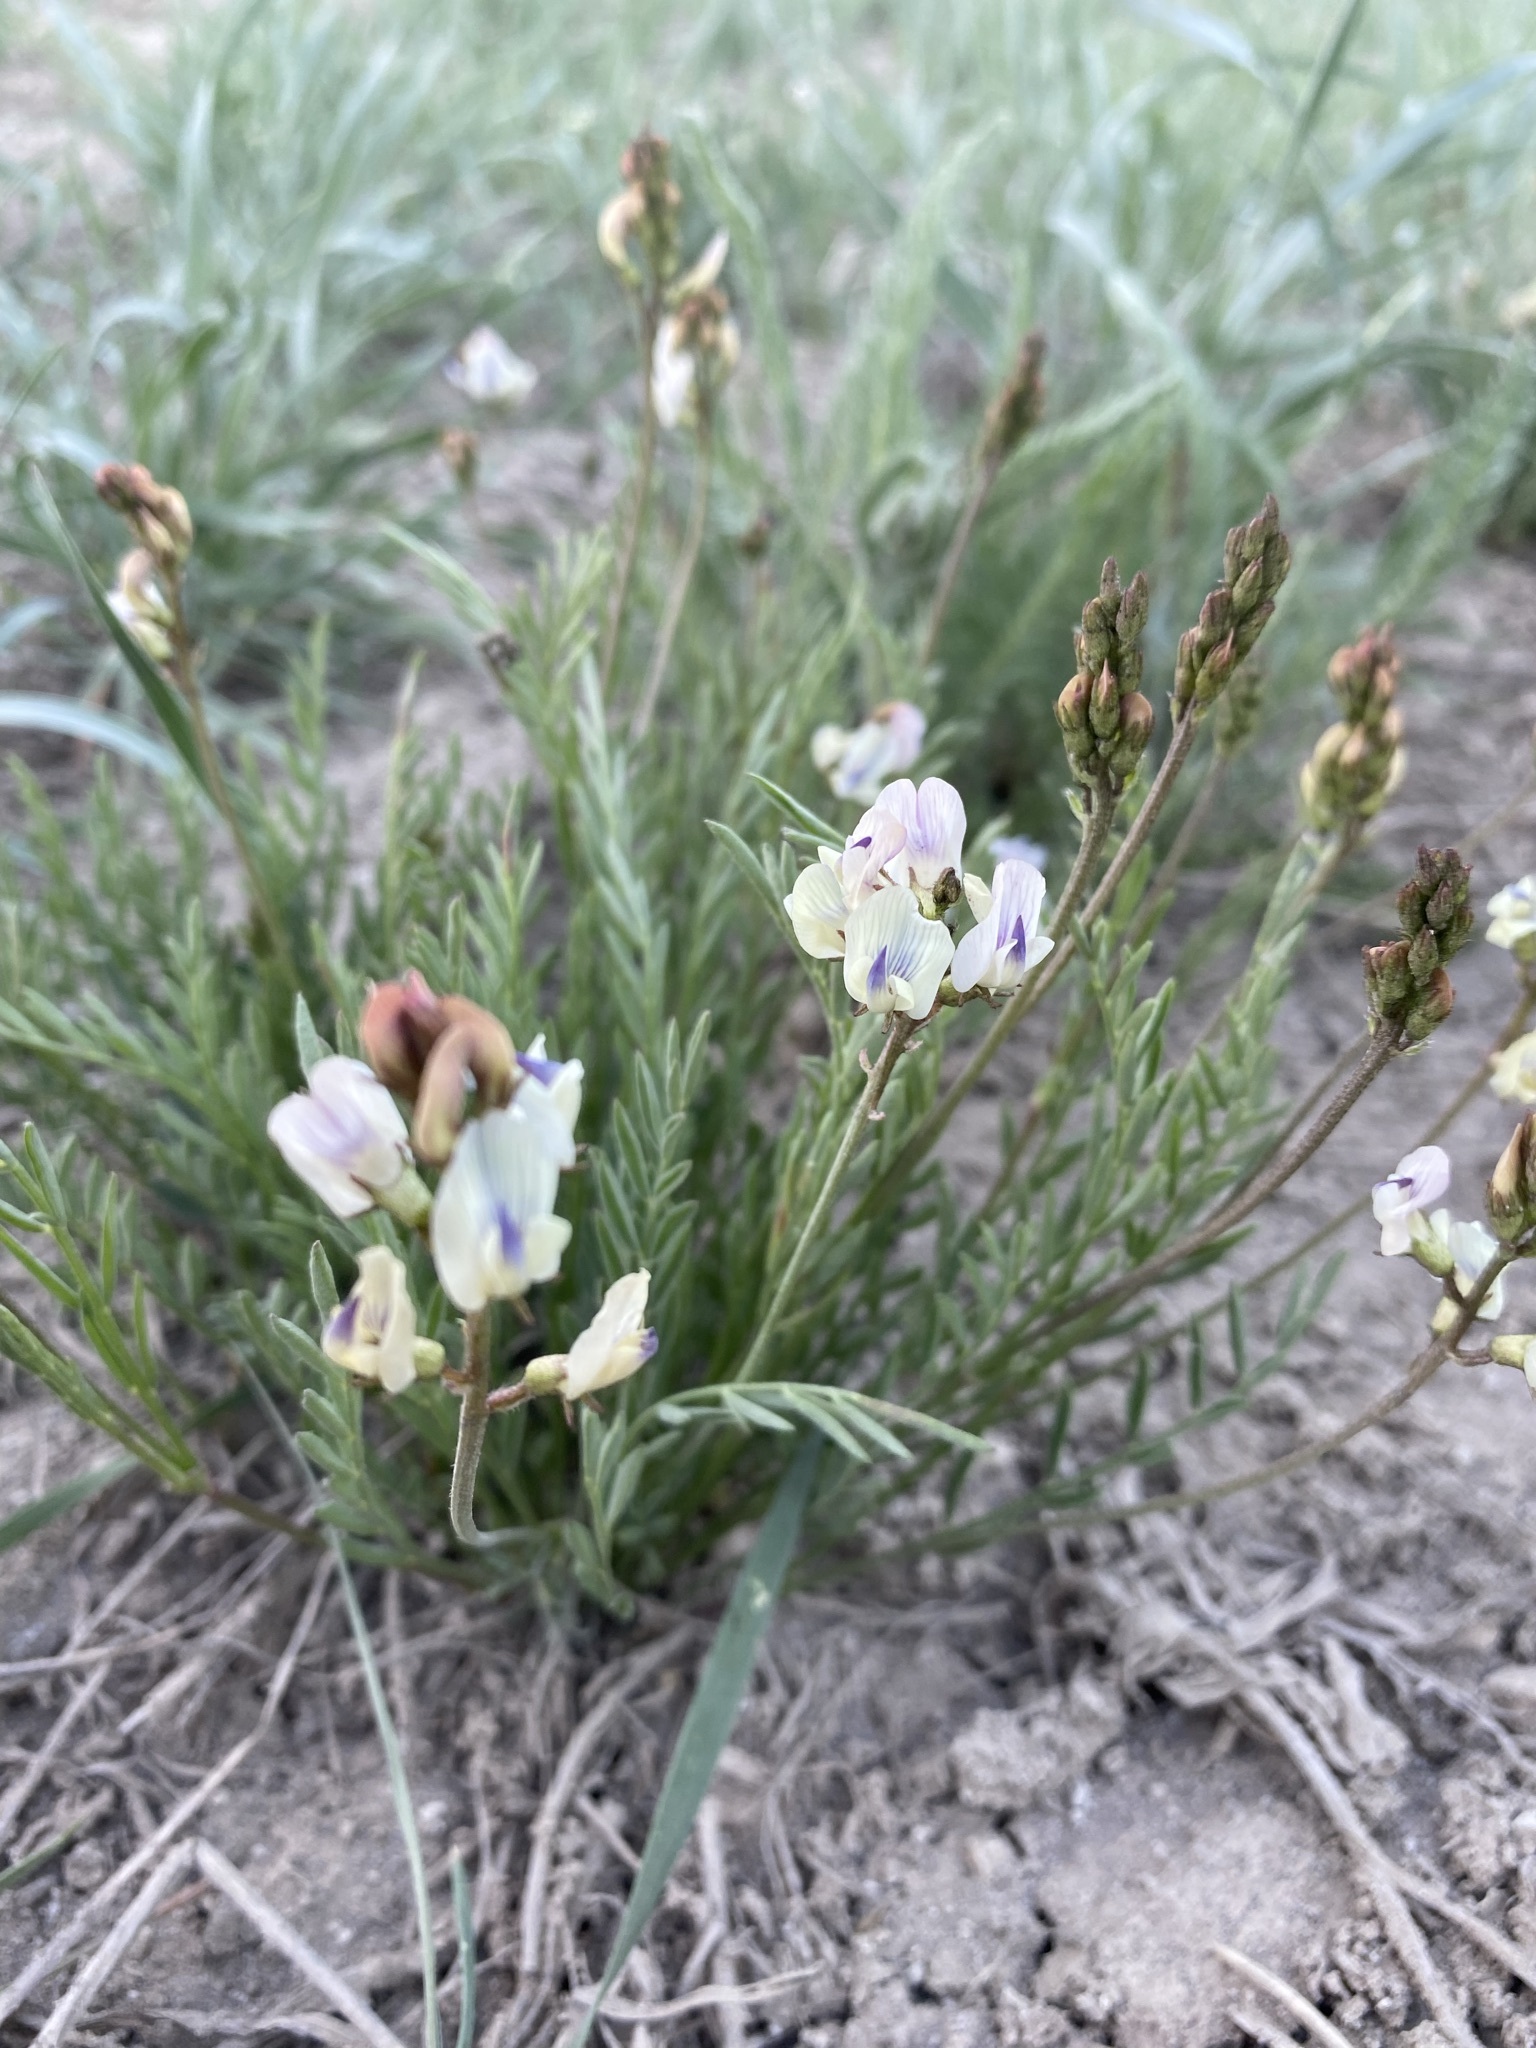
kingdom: Plantae
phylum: Tracheophyta
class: Magnoliopsida
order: Fabales
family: Fabaceae
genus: Astragalus
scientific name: Astragalus miser
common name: Timber milkvetch
